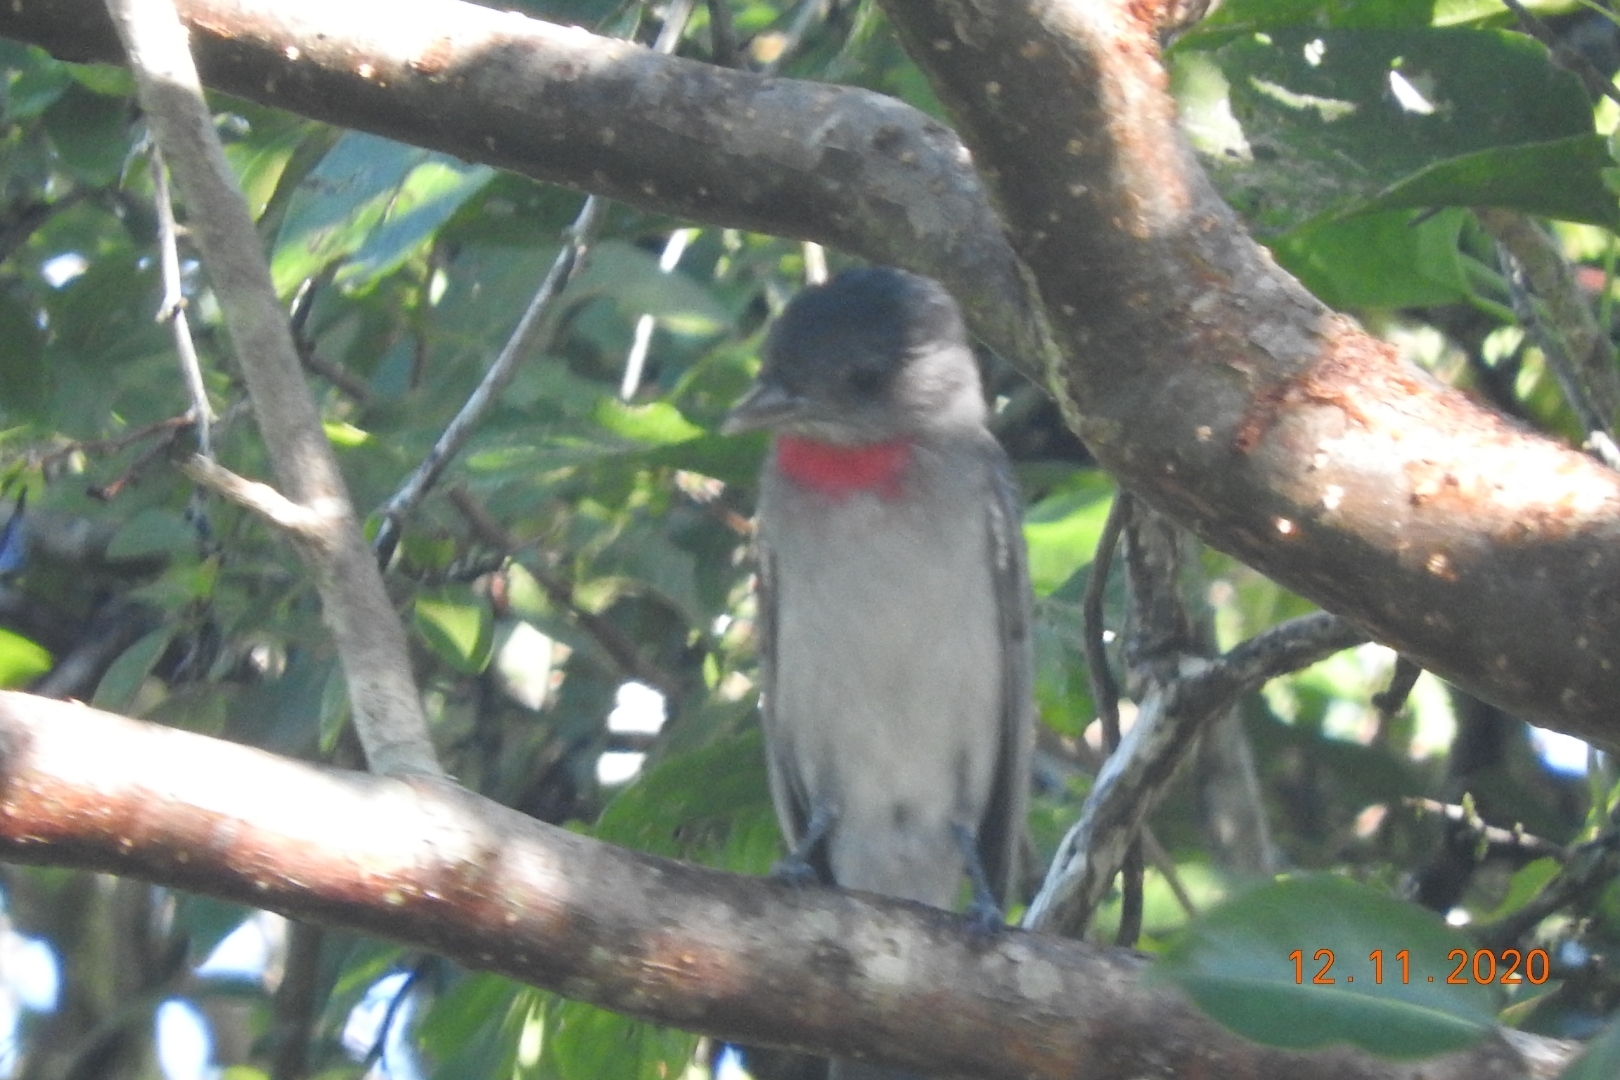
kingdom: Animalia
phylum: Chordata
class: Aves
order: Passeriformes
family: Cotingidae
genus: Pachyramphus
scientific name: Pachyramphus aglaiae
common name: Rose-throated becard
